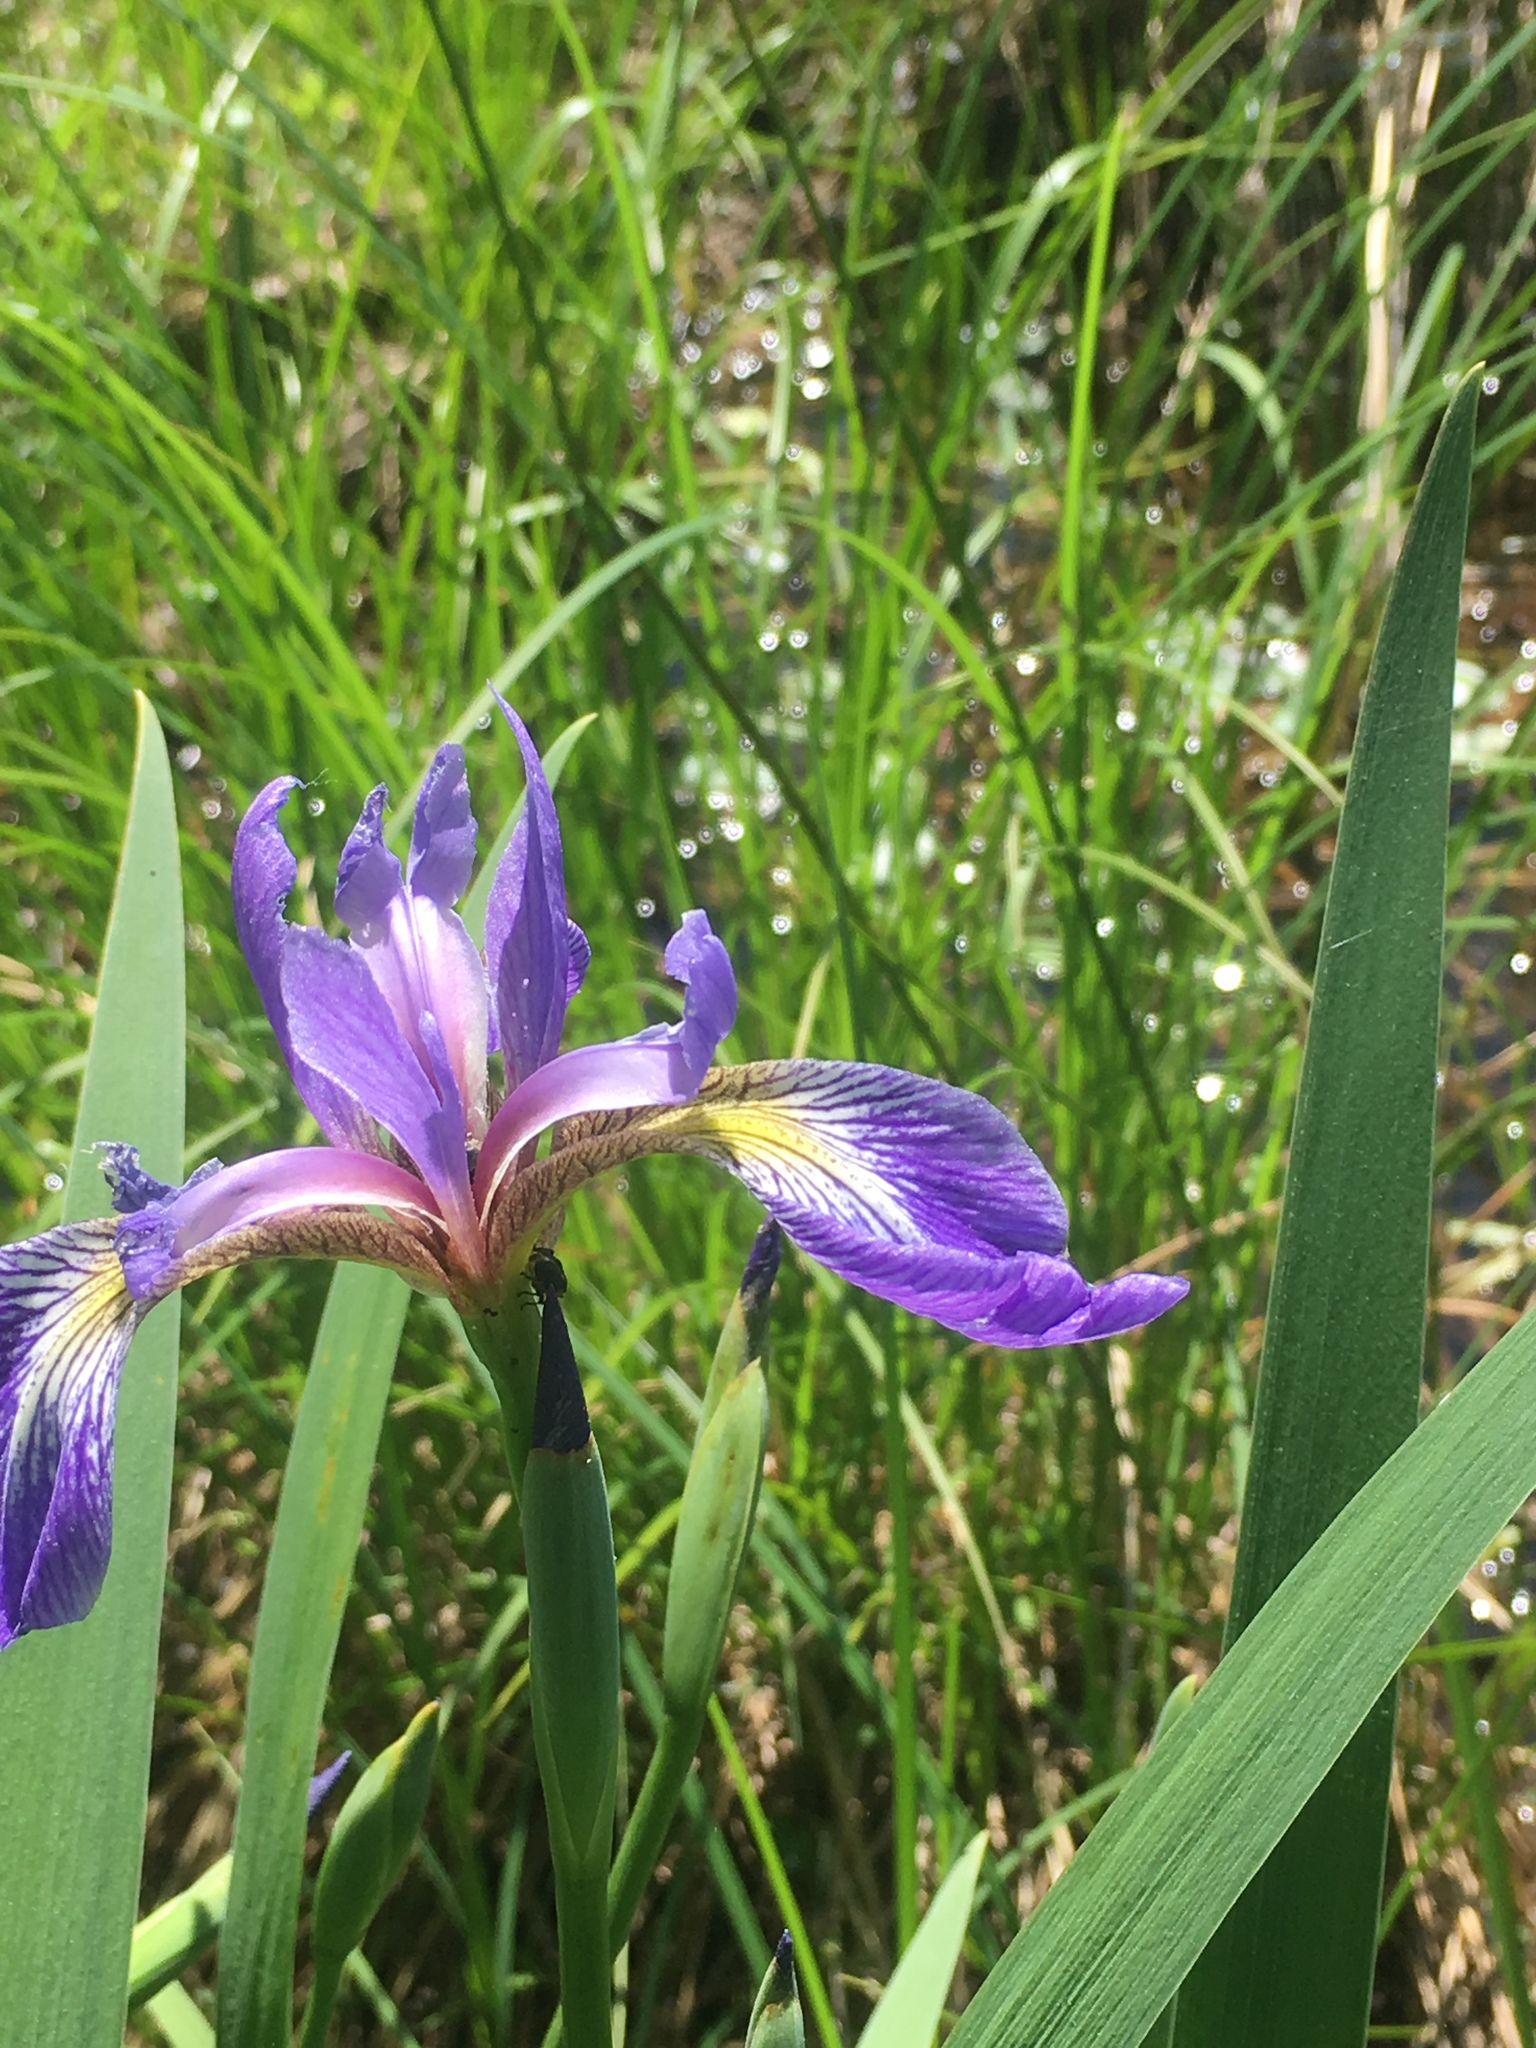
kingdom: Plantae
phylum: Tracheophyta
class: Liliopsida
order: Asparagales
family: Iridaceae
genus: Iris
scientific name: Iris versicolor
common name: Purple iris
